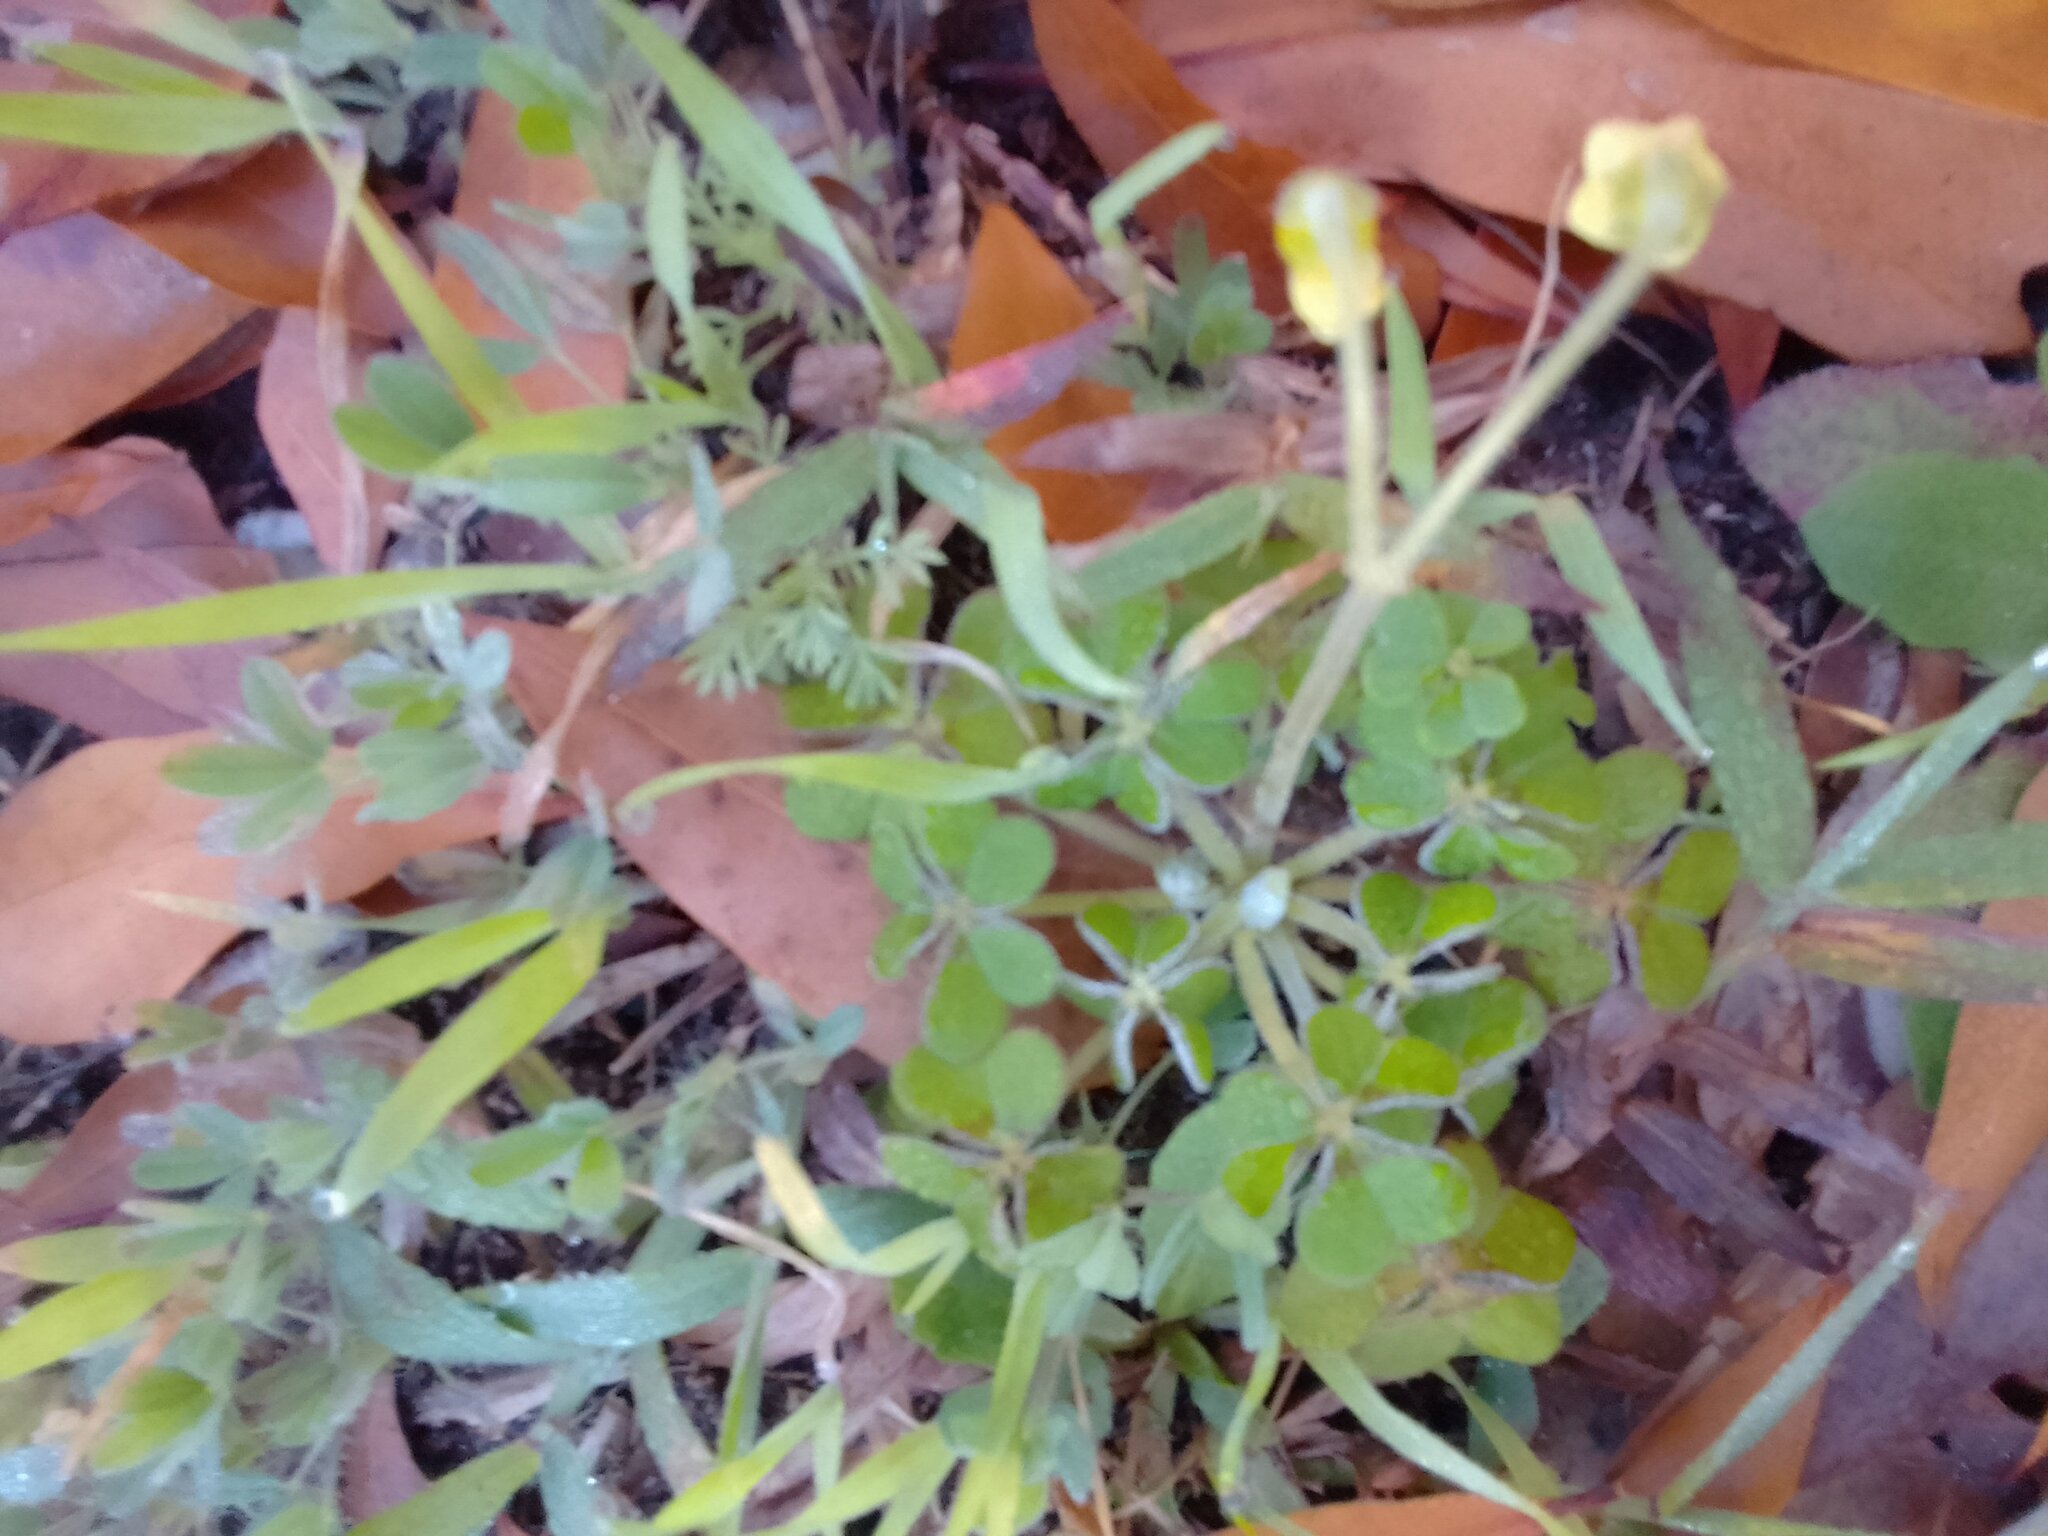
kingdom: Plantae
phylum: Tracheophyta
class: Magnoliopsida
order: Oxalidales
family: Oxalidaceae
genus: Oxalis
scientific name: Oxalis compressa
